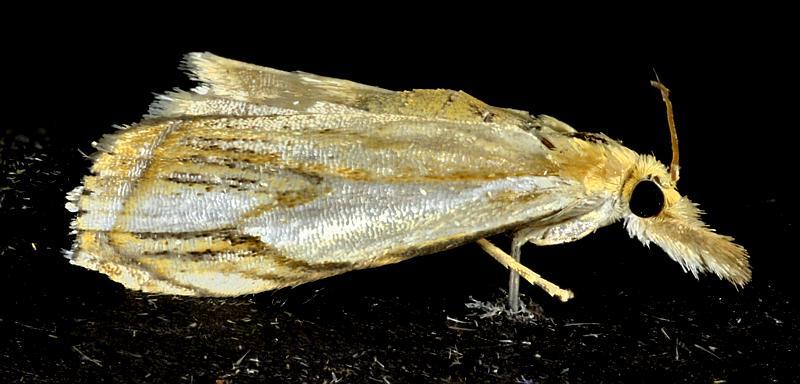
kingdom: Animalia
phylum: Arthropoda
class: Insecta
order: Lepidoptera
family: Crambidae
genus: Crambus
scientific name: Crambus agitatellus
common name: Double-banded grass-veneer
